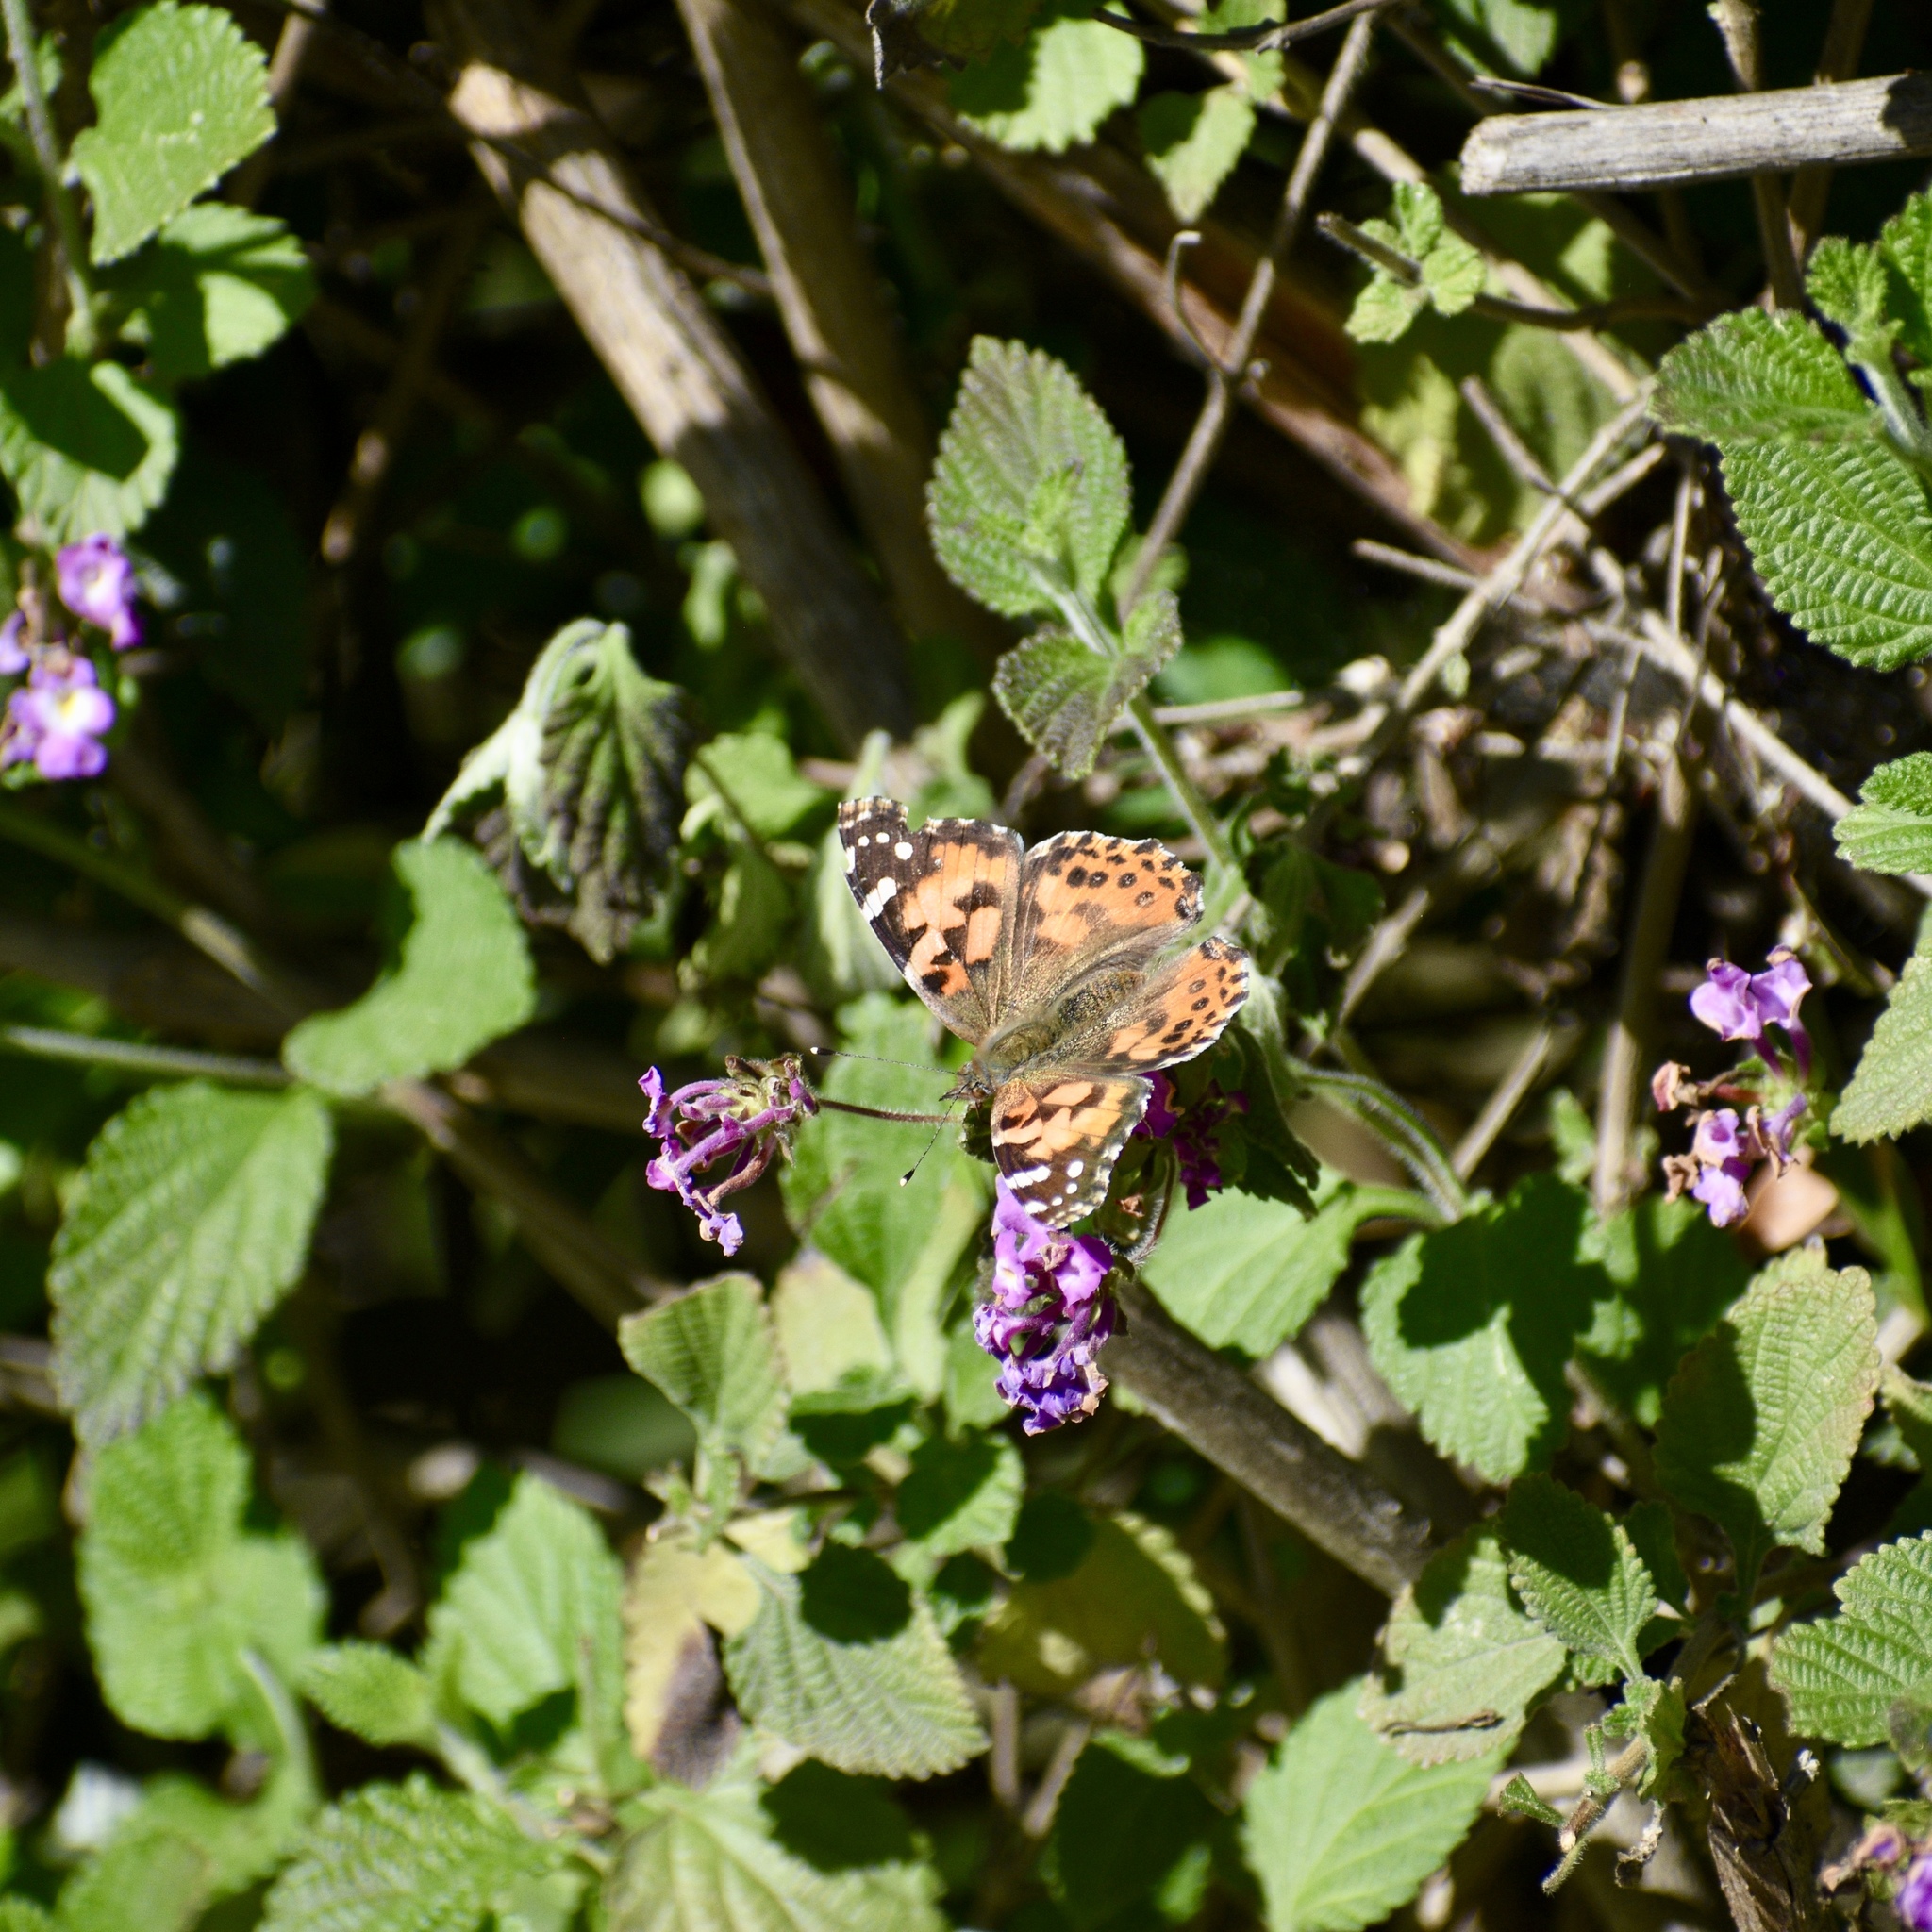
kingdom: Animalia
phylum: Arthropoda
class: Insecta
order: Lepidoptera
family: Nymphalidae
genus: Vanessa
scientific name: Vanessa cardui
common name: Painted lady
